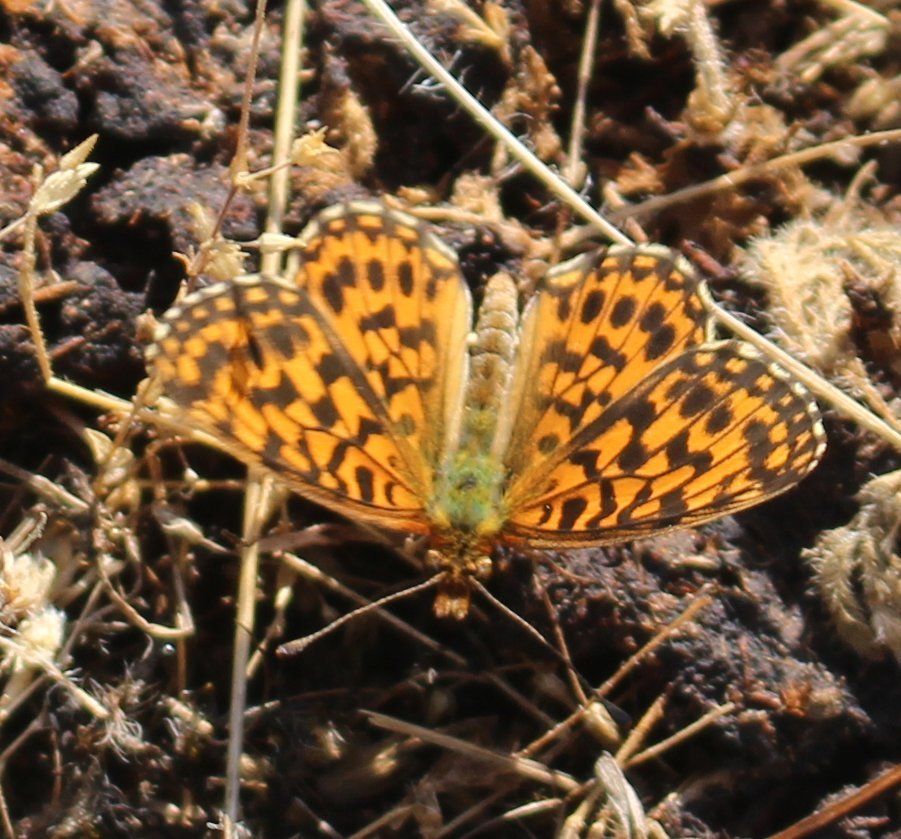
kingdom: Animalia
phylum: Arthropoda
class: Insecta
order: Lepidoptera
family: Nymphalidae
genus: Boloria
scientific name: Boloria dia
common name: Weaver's fritillary
